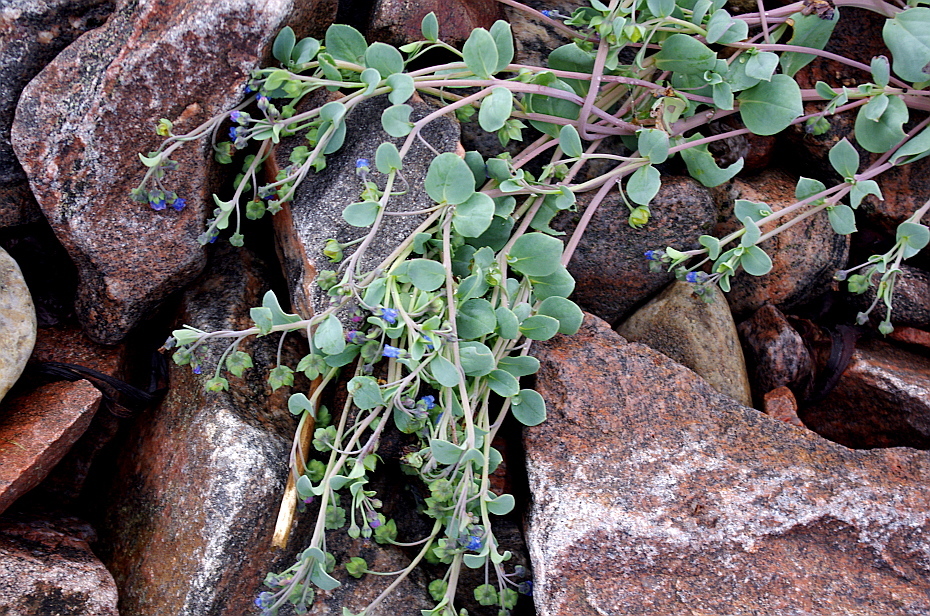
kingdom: Plantae
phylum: Tracheophyta
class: Magnoliopsida
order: Boraginales
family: Boraginaceae
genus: Mertensia
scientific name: Mertensia maritima
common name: Oysterplant
